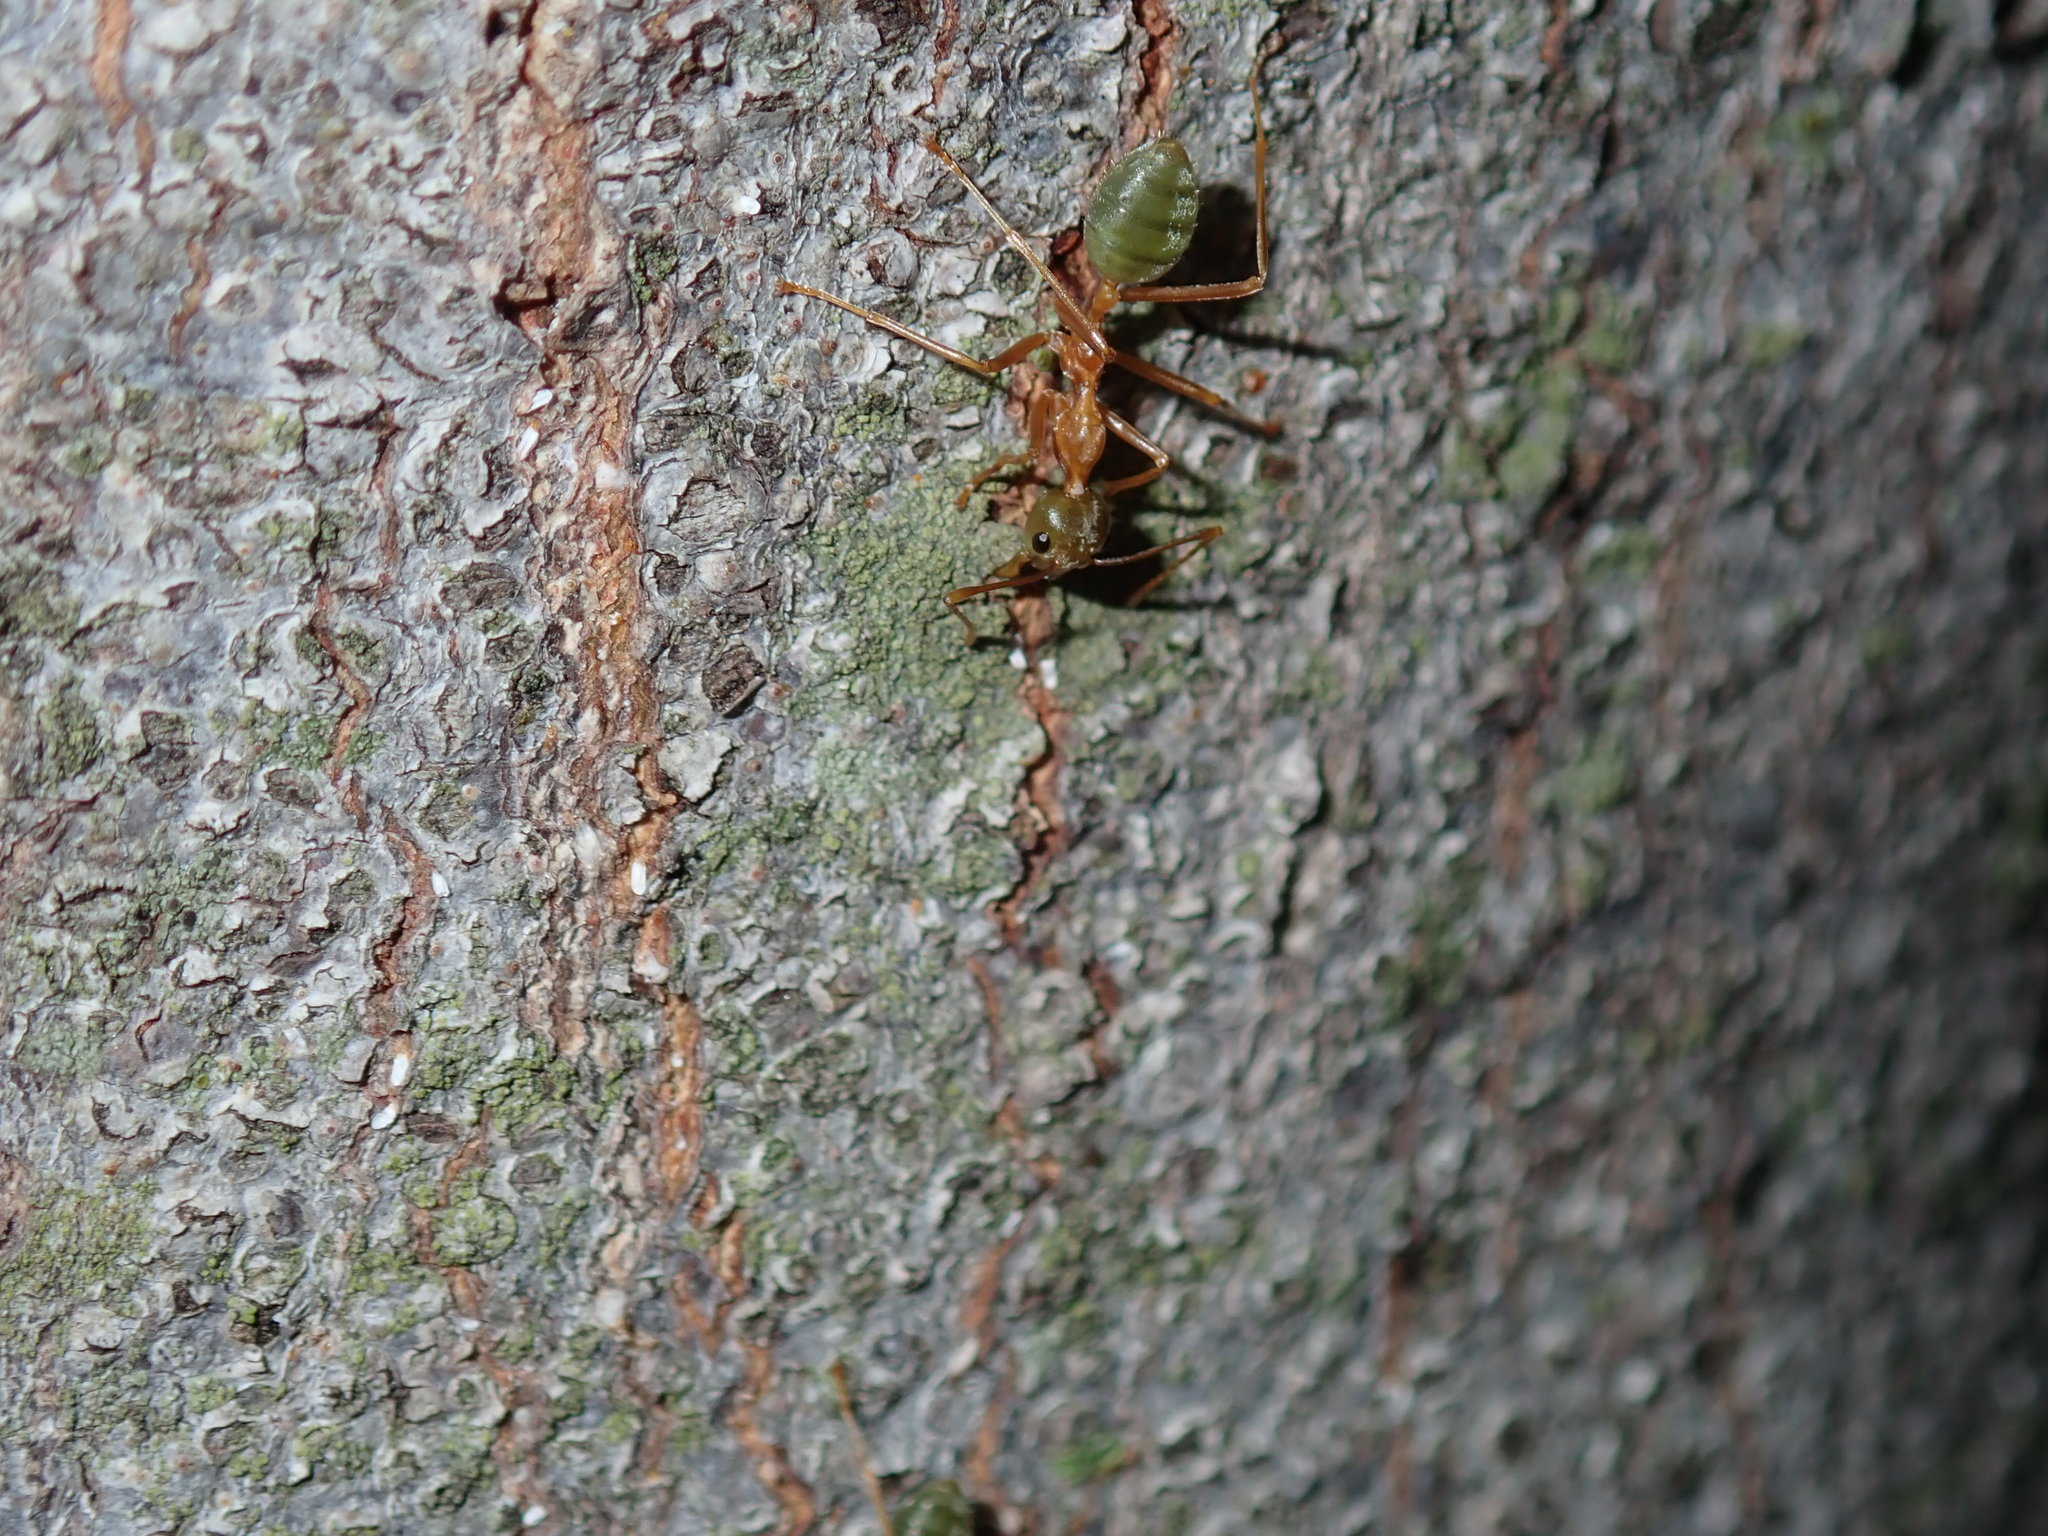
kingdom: Animalia
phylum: Arthropoda
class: Insecta
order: Hymenoptera
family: Formicidae
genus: Oecophylla
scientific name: Oecophylla smaragdina
